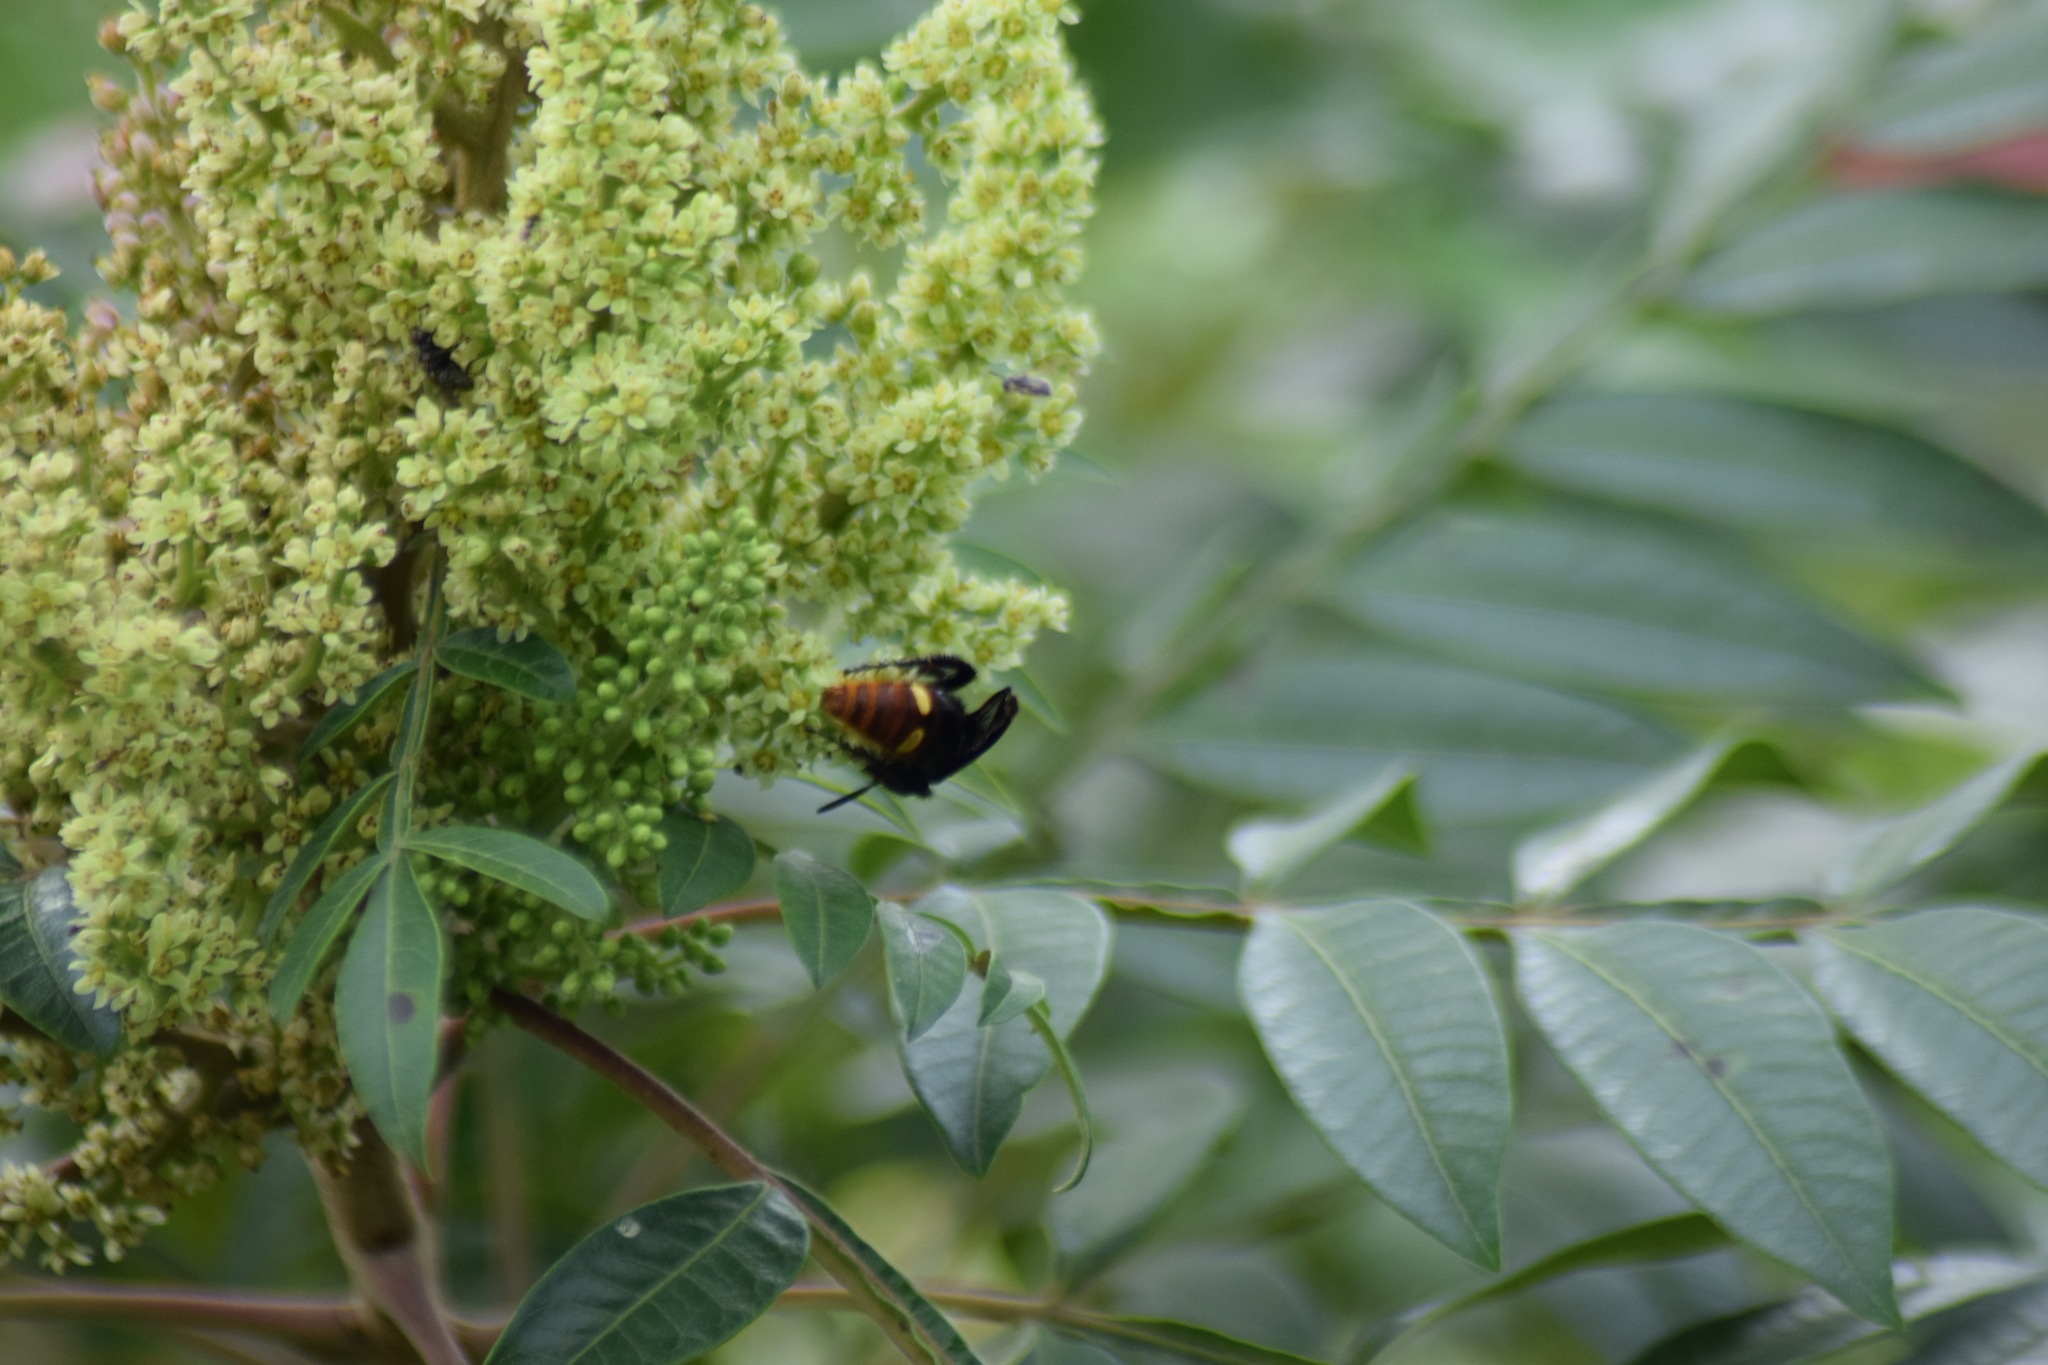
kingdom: Animalia
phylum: Arthropoda
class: Insecta
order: Hymenoptera
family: Scoliidae
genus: Scolia
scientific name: Scolia dubia
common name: Blue-winged scoliid wasp
